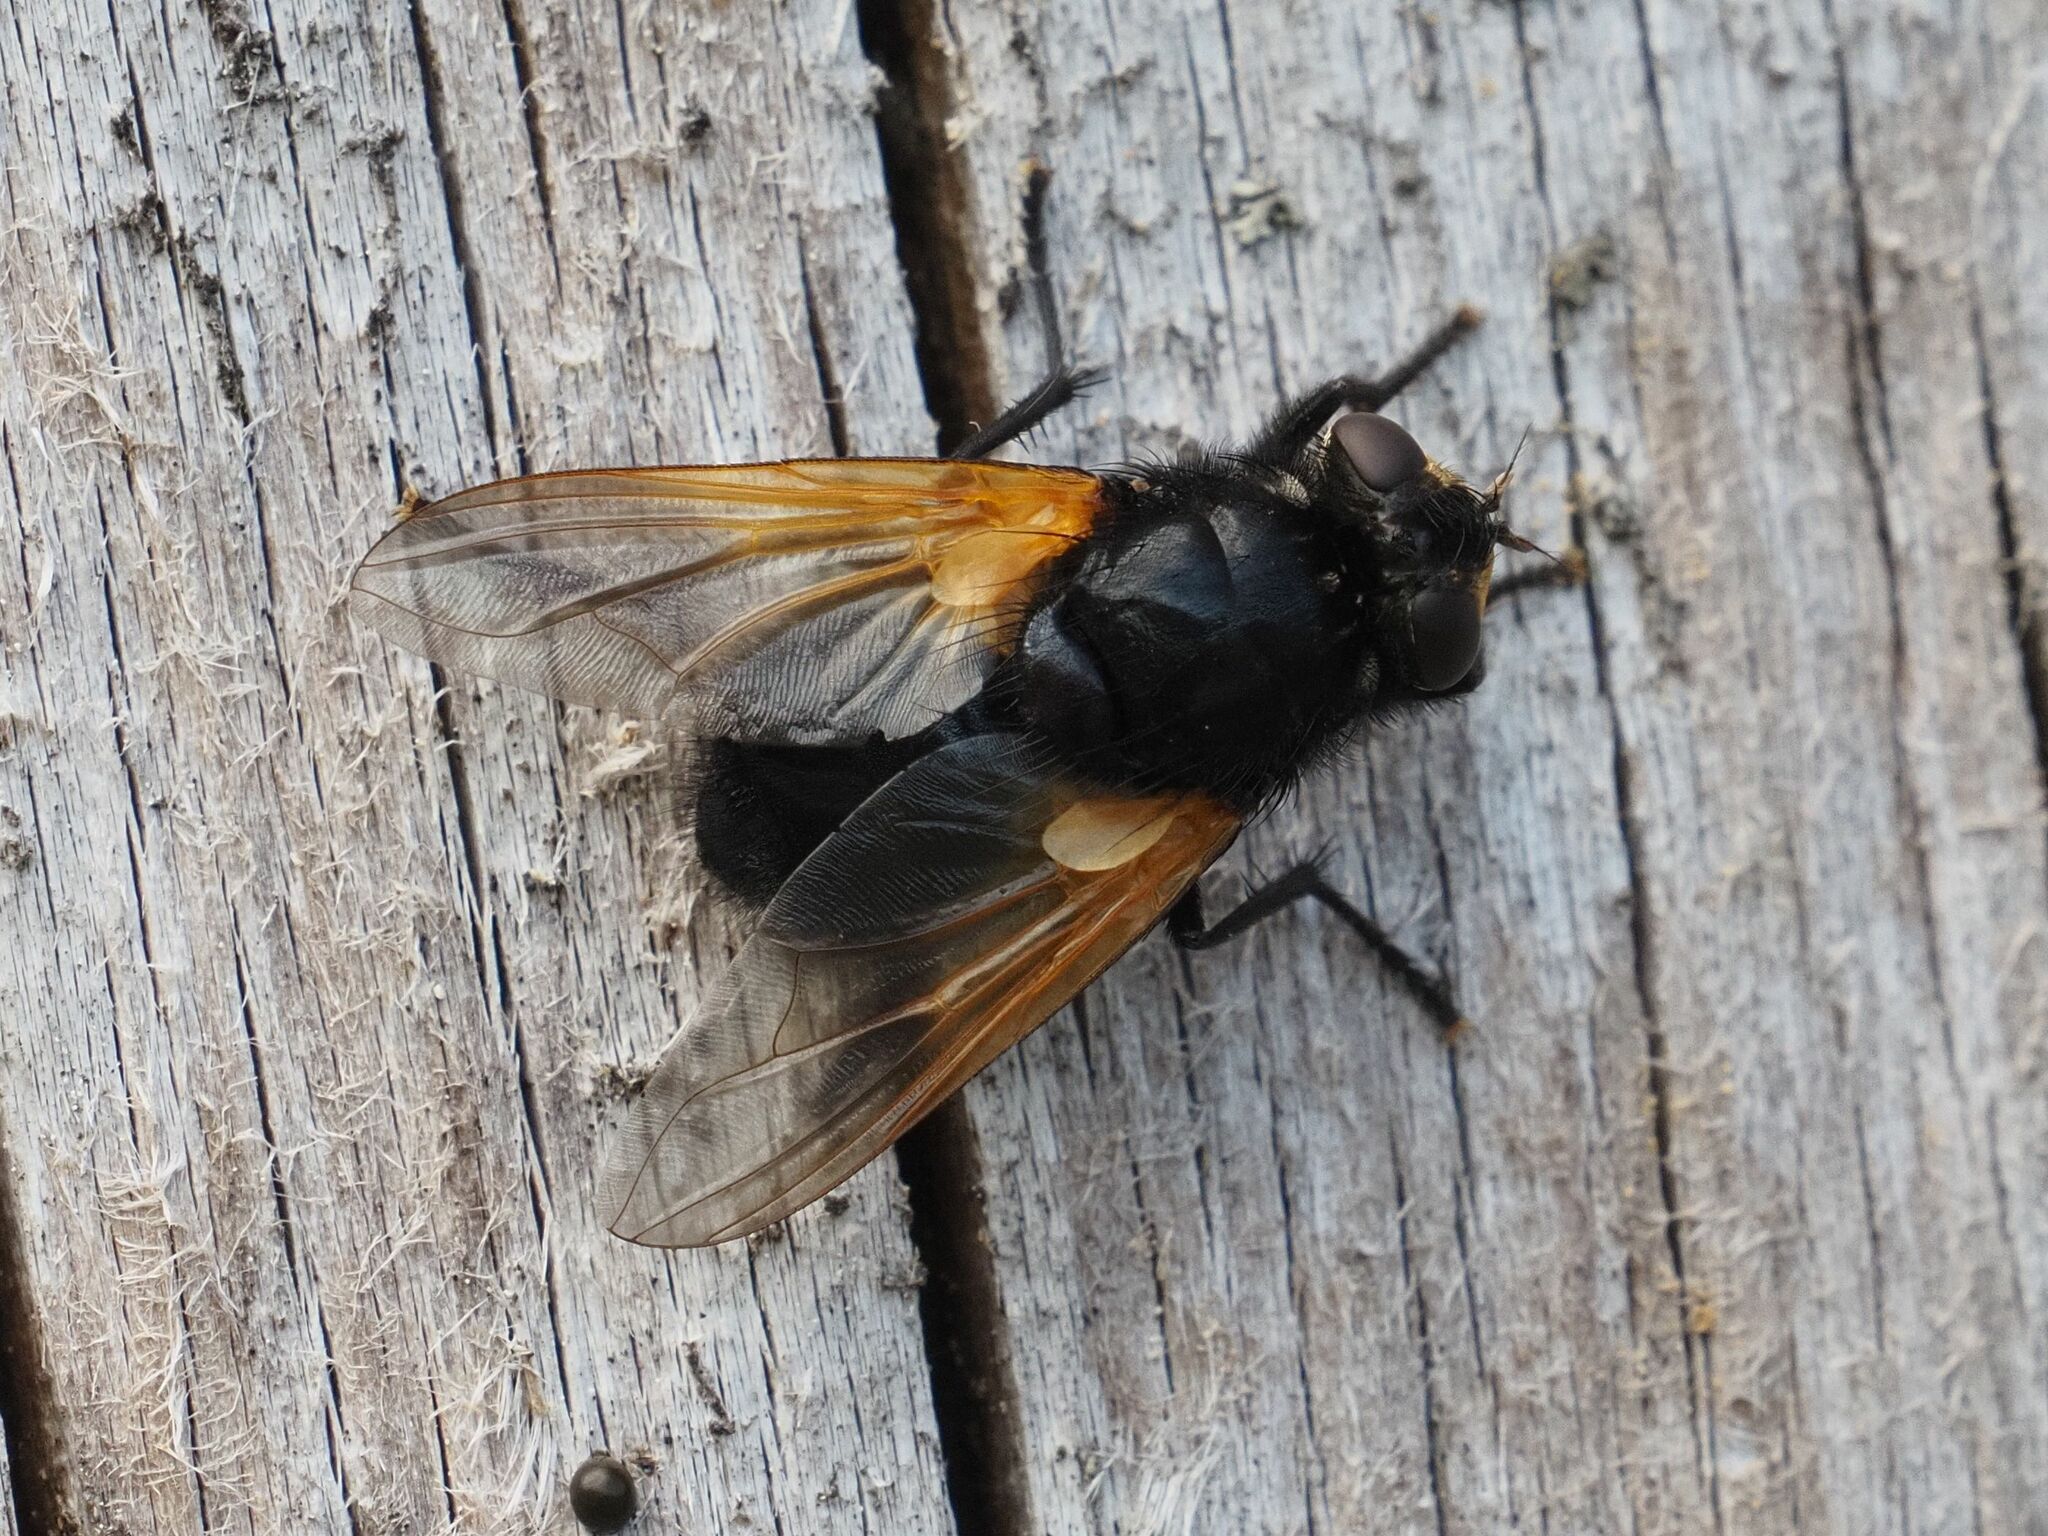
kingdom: Animalia
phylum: Arthropoda
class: Insecta
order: Diptera
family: Muscidae
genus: Mesembrina
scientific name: Mesembrina meridiana
